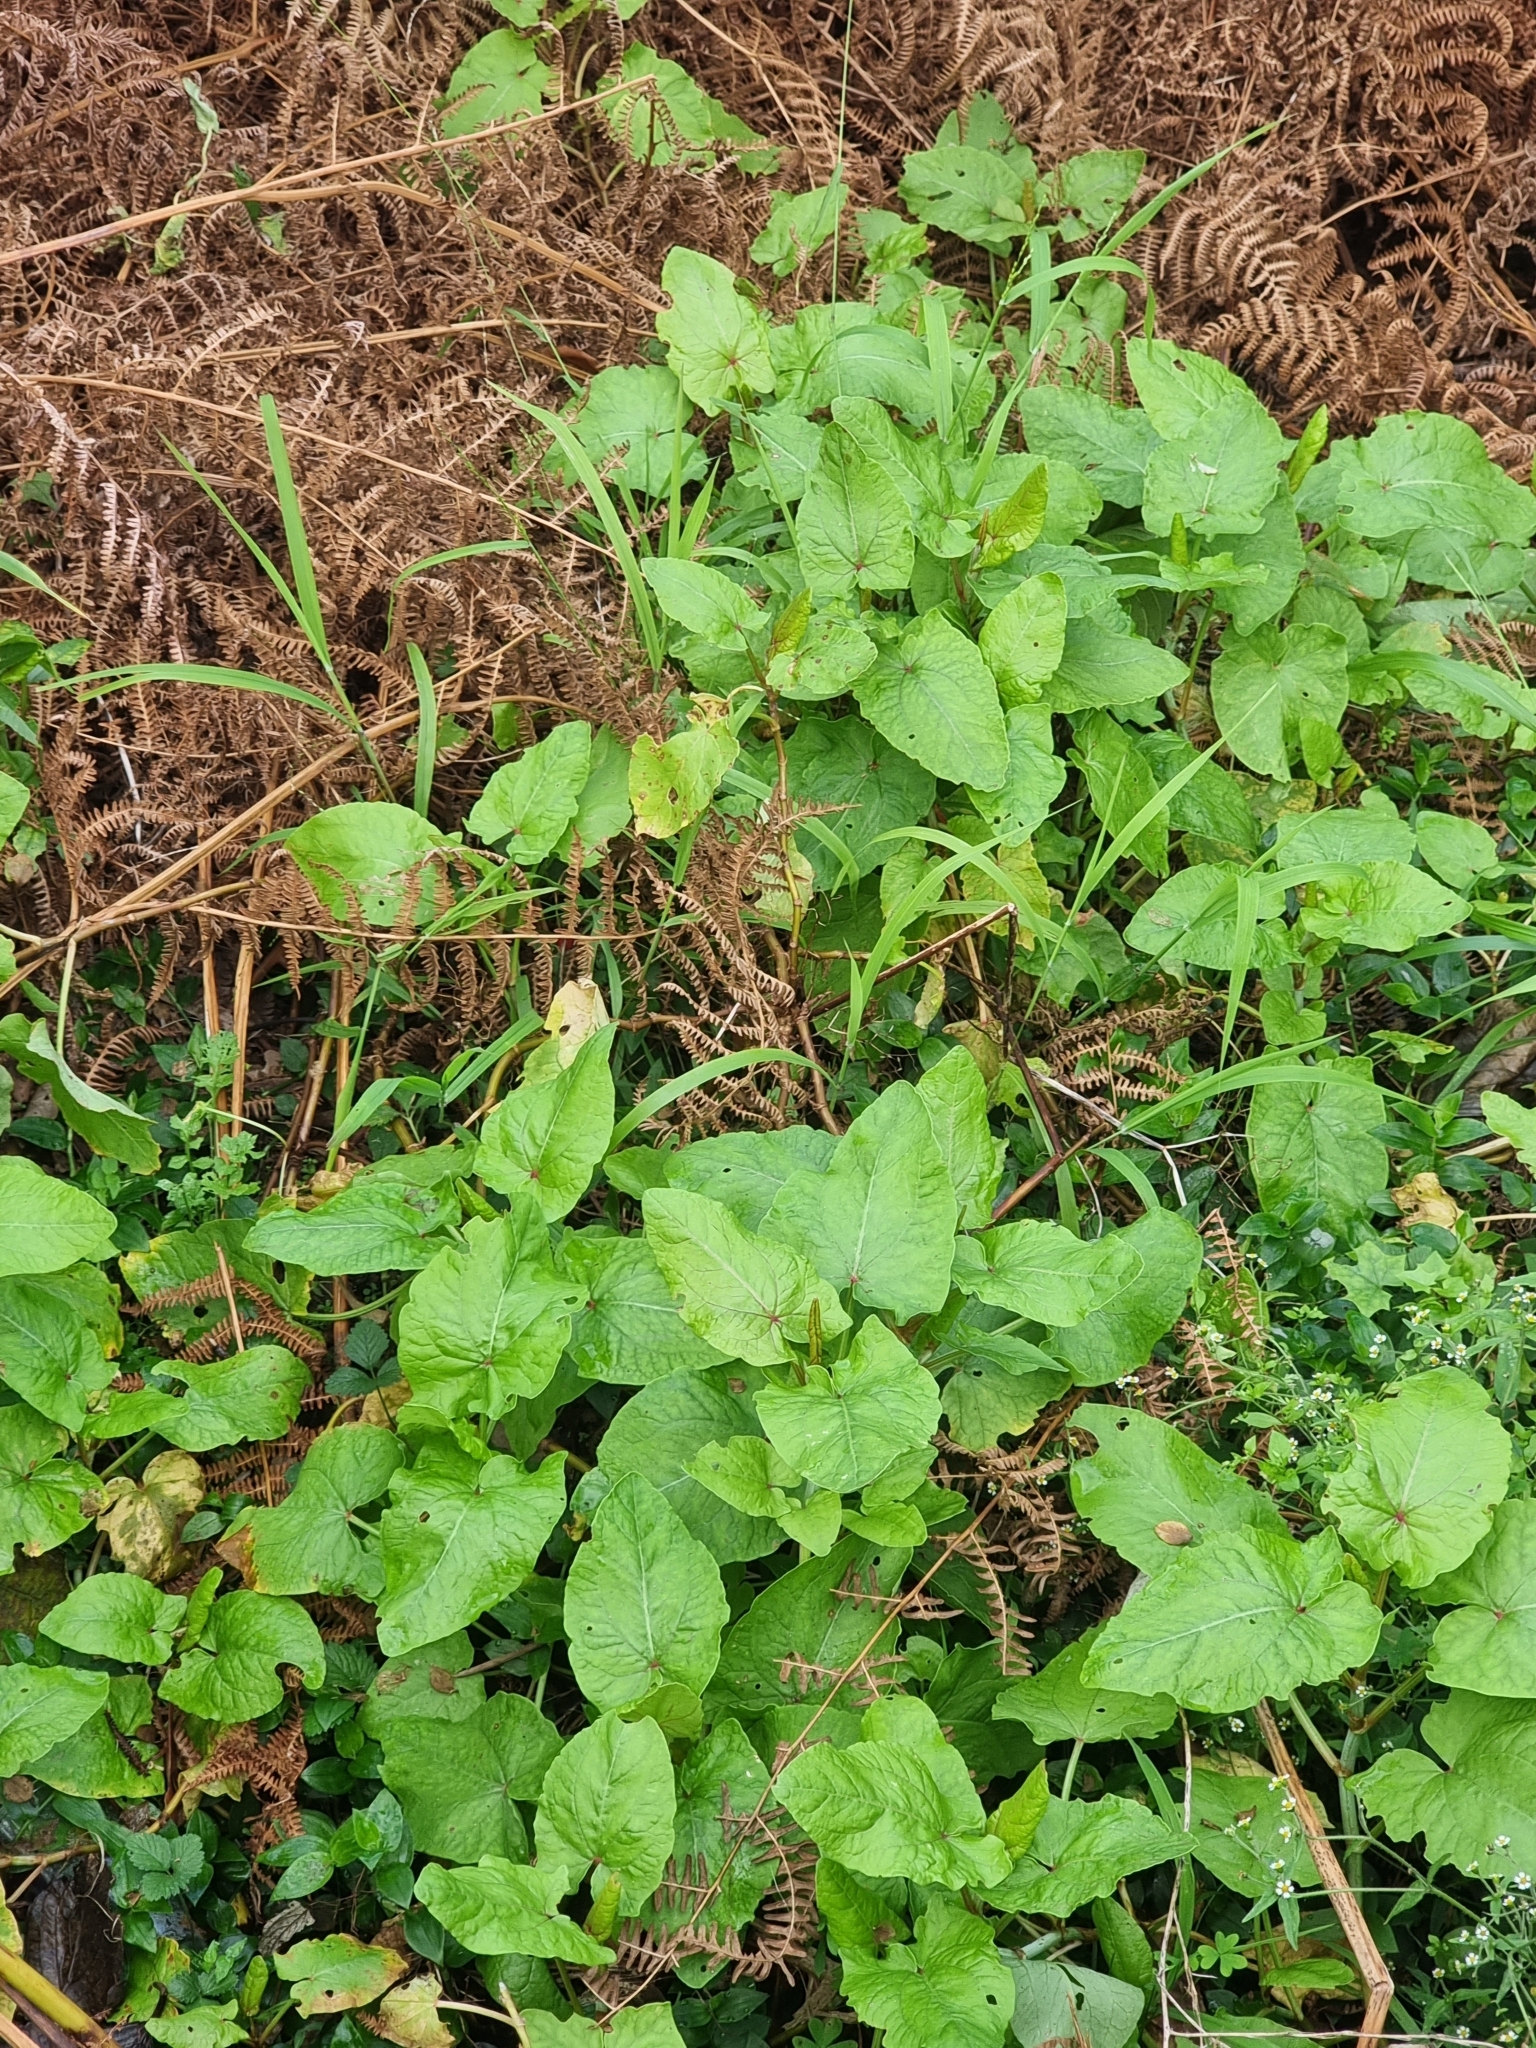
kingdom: Plantae
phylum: Tracheophyta
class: Magnoliopsida
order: Caryophyllales
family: Polygonaceae
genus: Rumex
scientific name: Rumex maderensis
